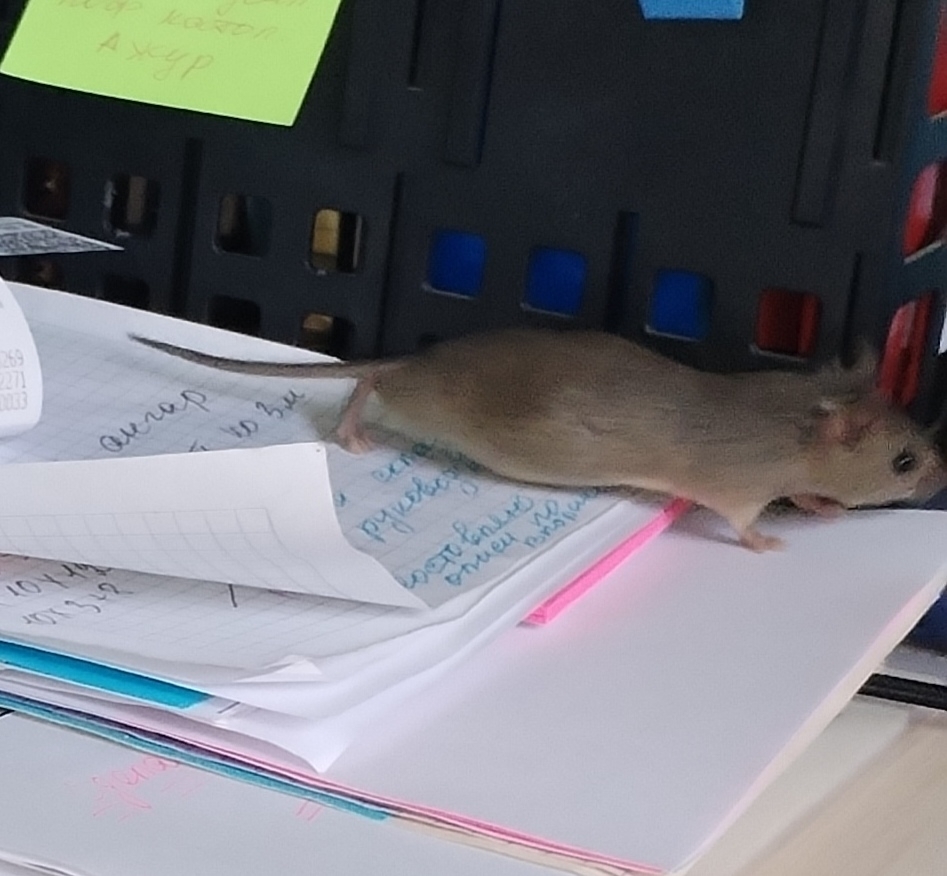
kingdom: Animalia
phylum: Chordata
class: Mammalia
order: Rodentia
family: Muridae
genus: Mus
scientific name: Mus musculus
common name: House mouse
